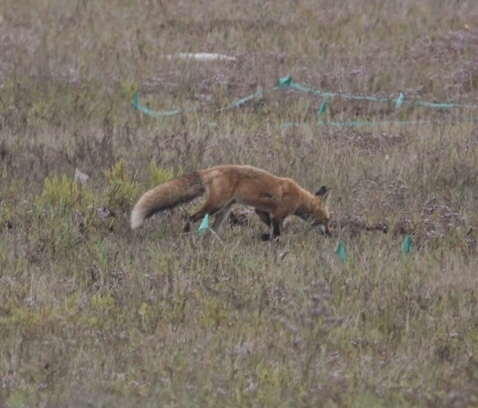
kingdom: Animalia
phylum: Chordata
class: Mammalia
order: Carnivora
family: Canidae
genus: Vulpes
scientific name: Vulpes vulpes
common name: Red fox
